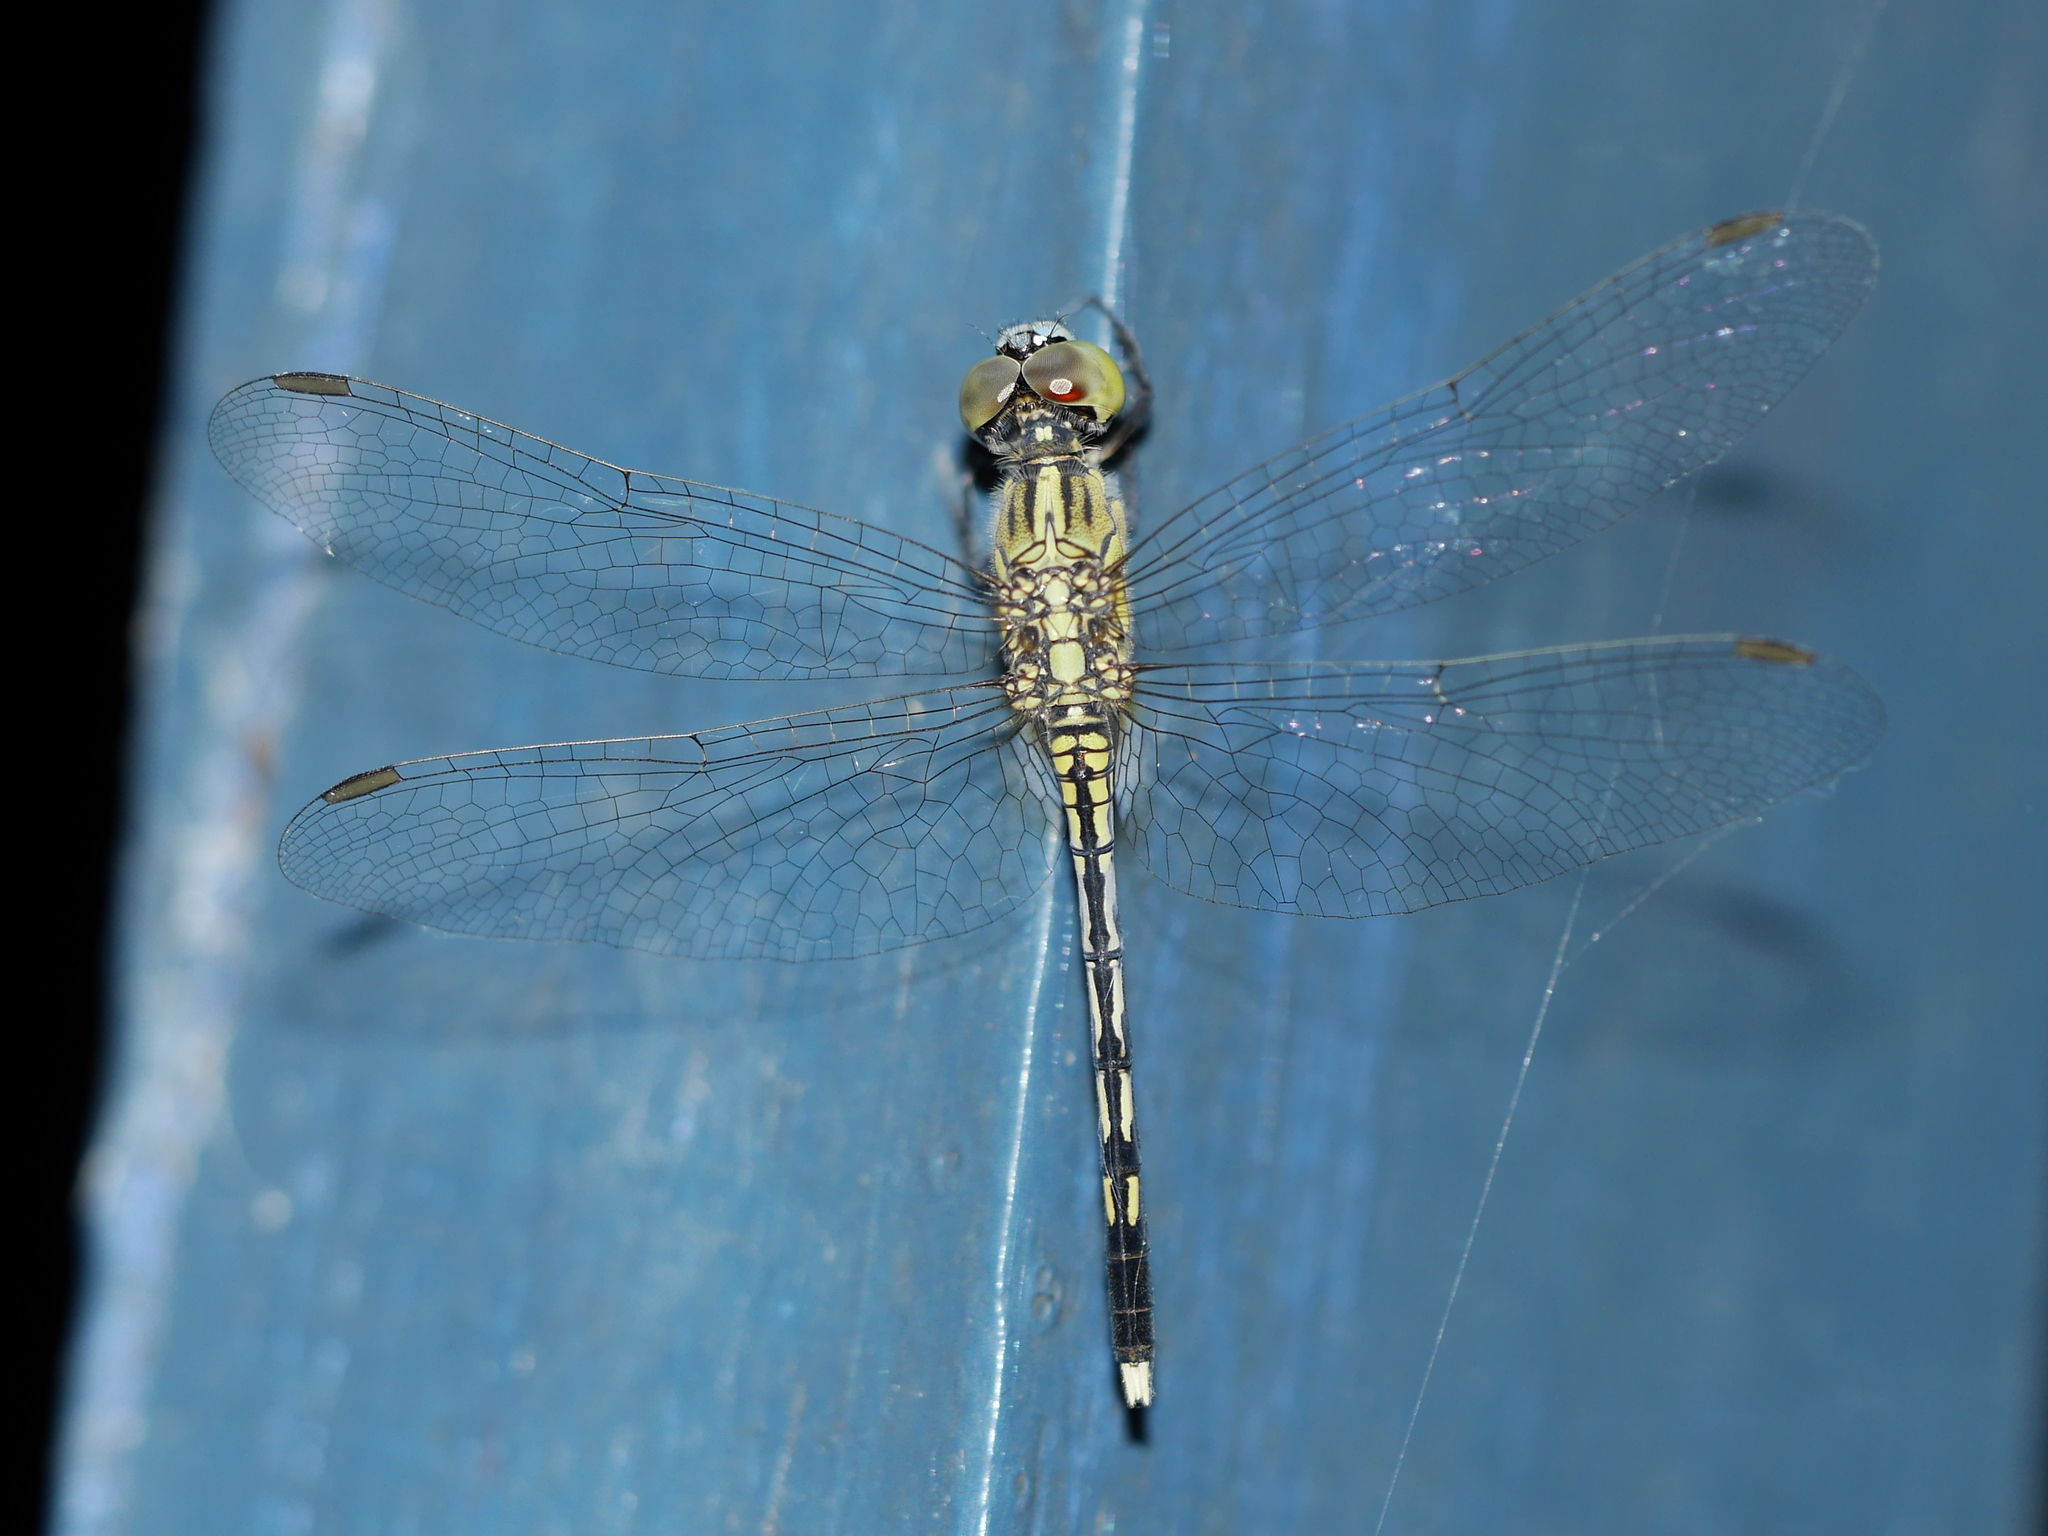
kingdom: Animalia
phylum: Arthropoda
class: Insecta
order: Odonata
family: Libellulidae
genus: Diplacodes
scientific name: Diplacodes trivialis
